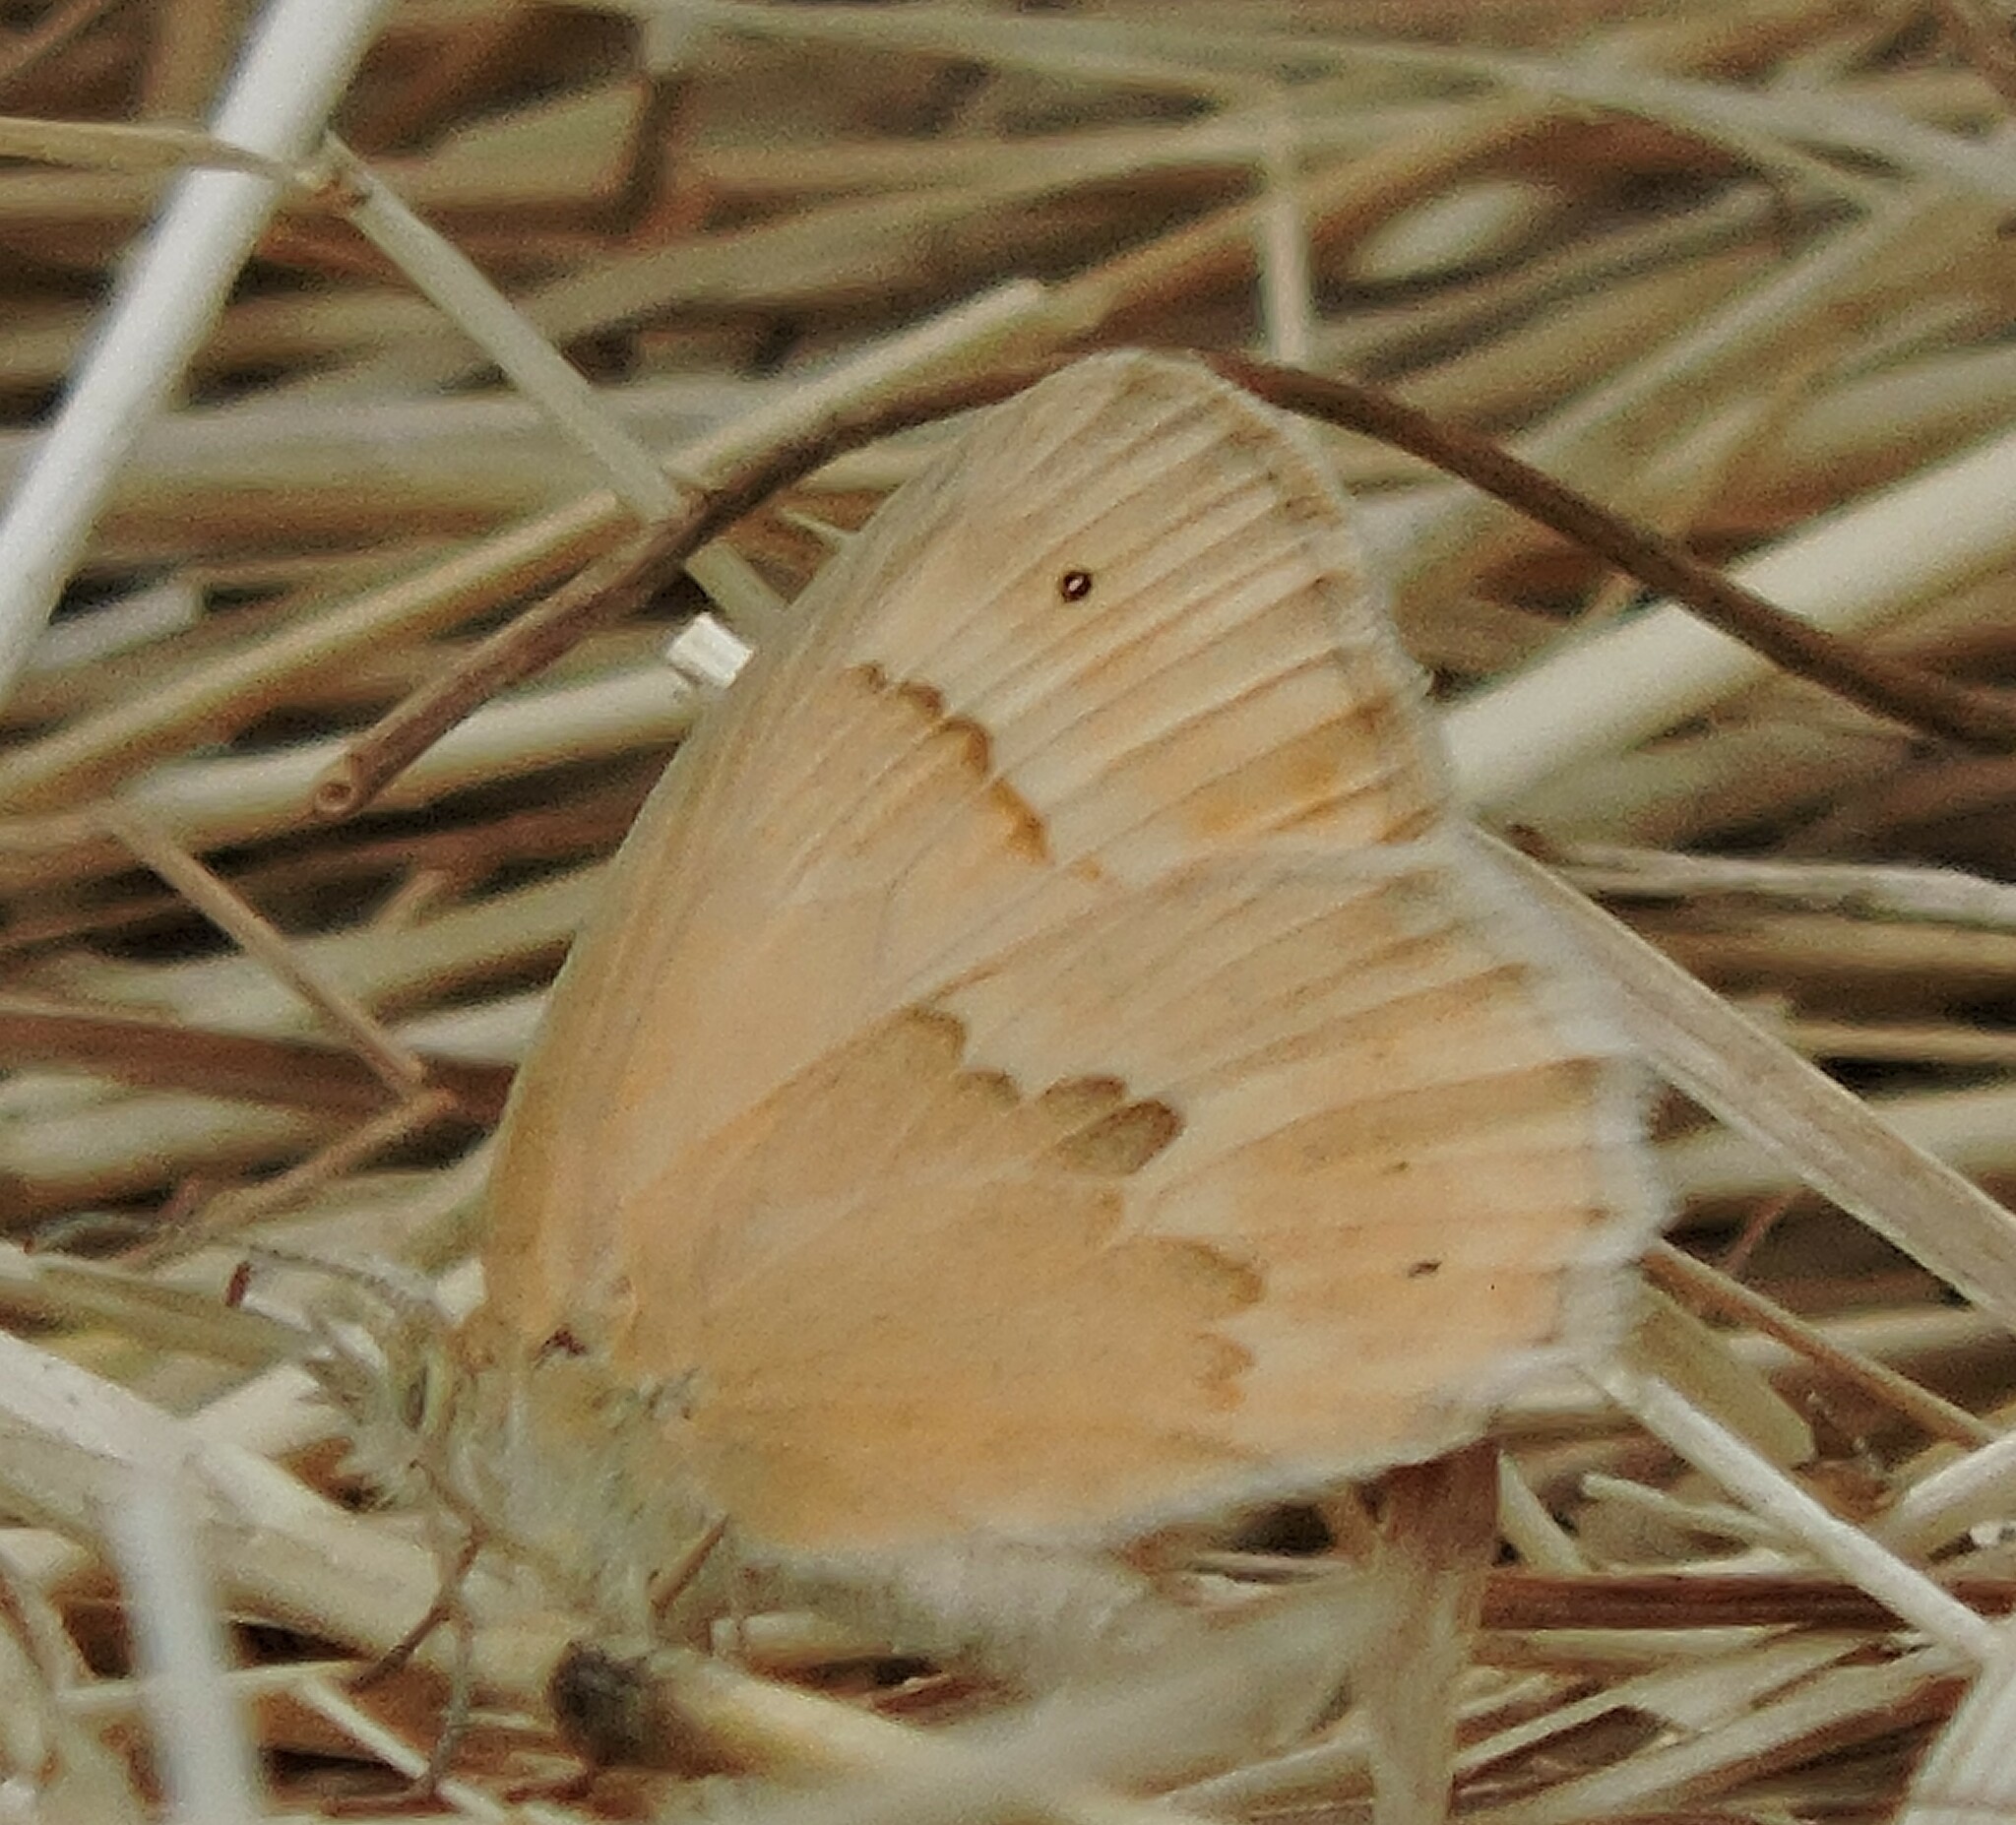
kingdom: Animalia
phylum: Arthropoda
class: Insecta
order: Lepidoptera
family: Nymphalidae
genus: Coenonympha
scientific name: Coenonympha california
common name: Common ringlet
